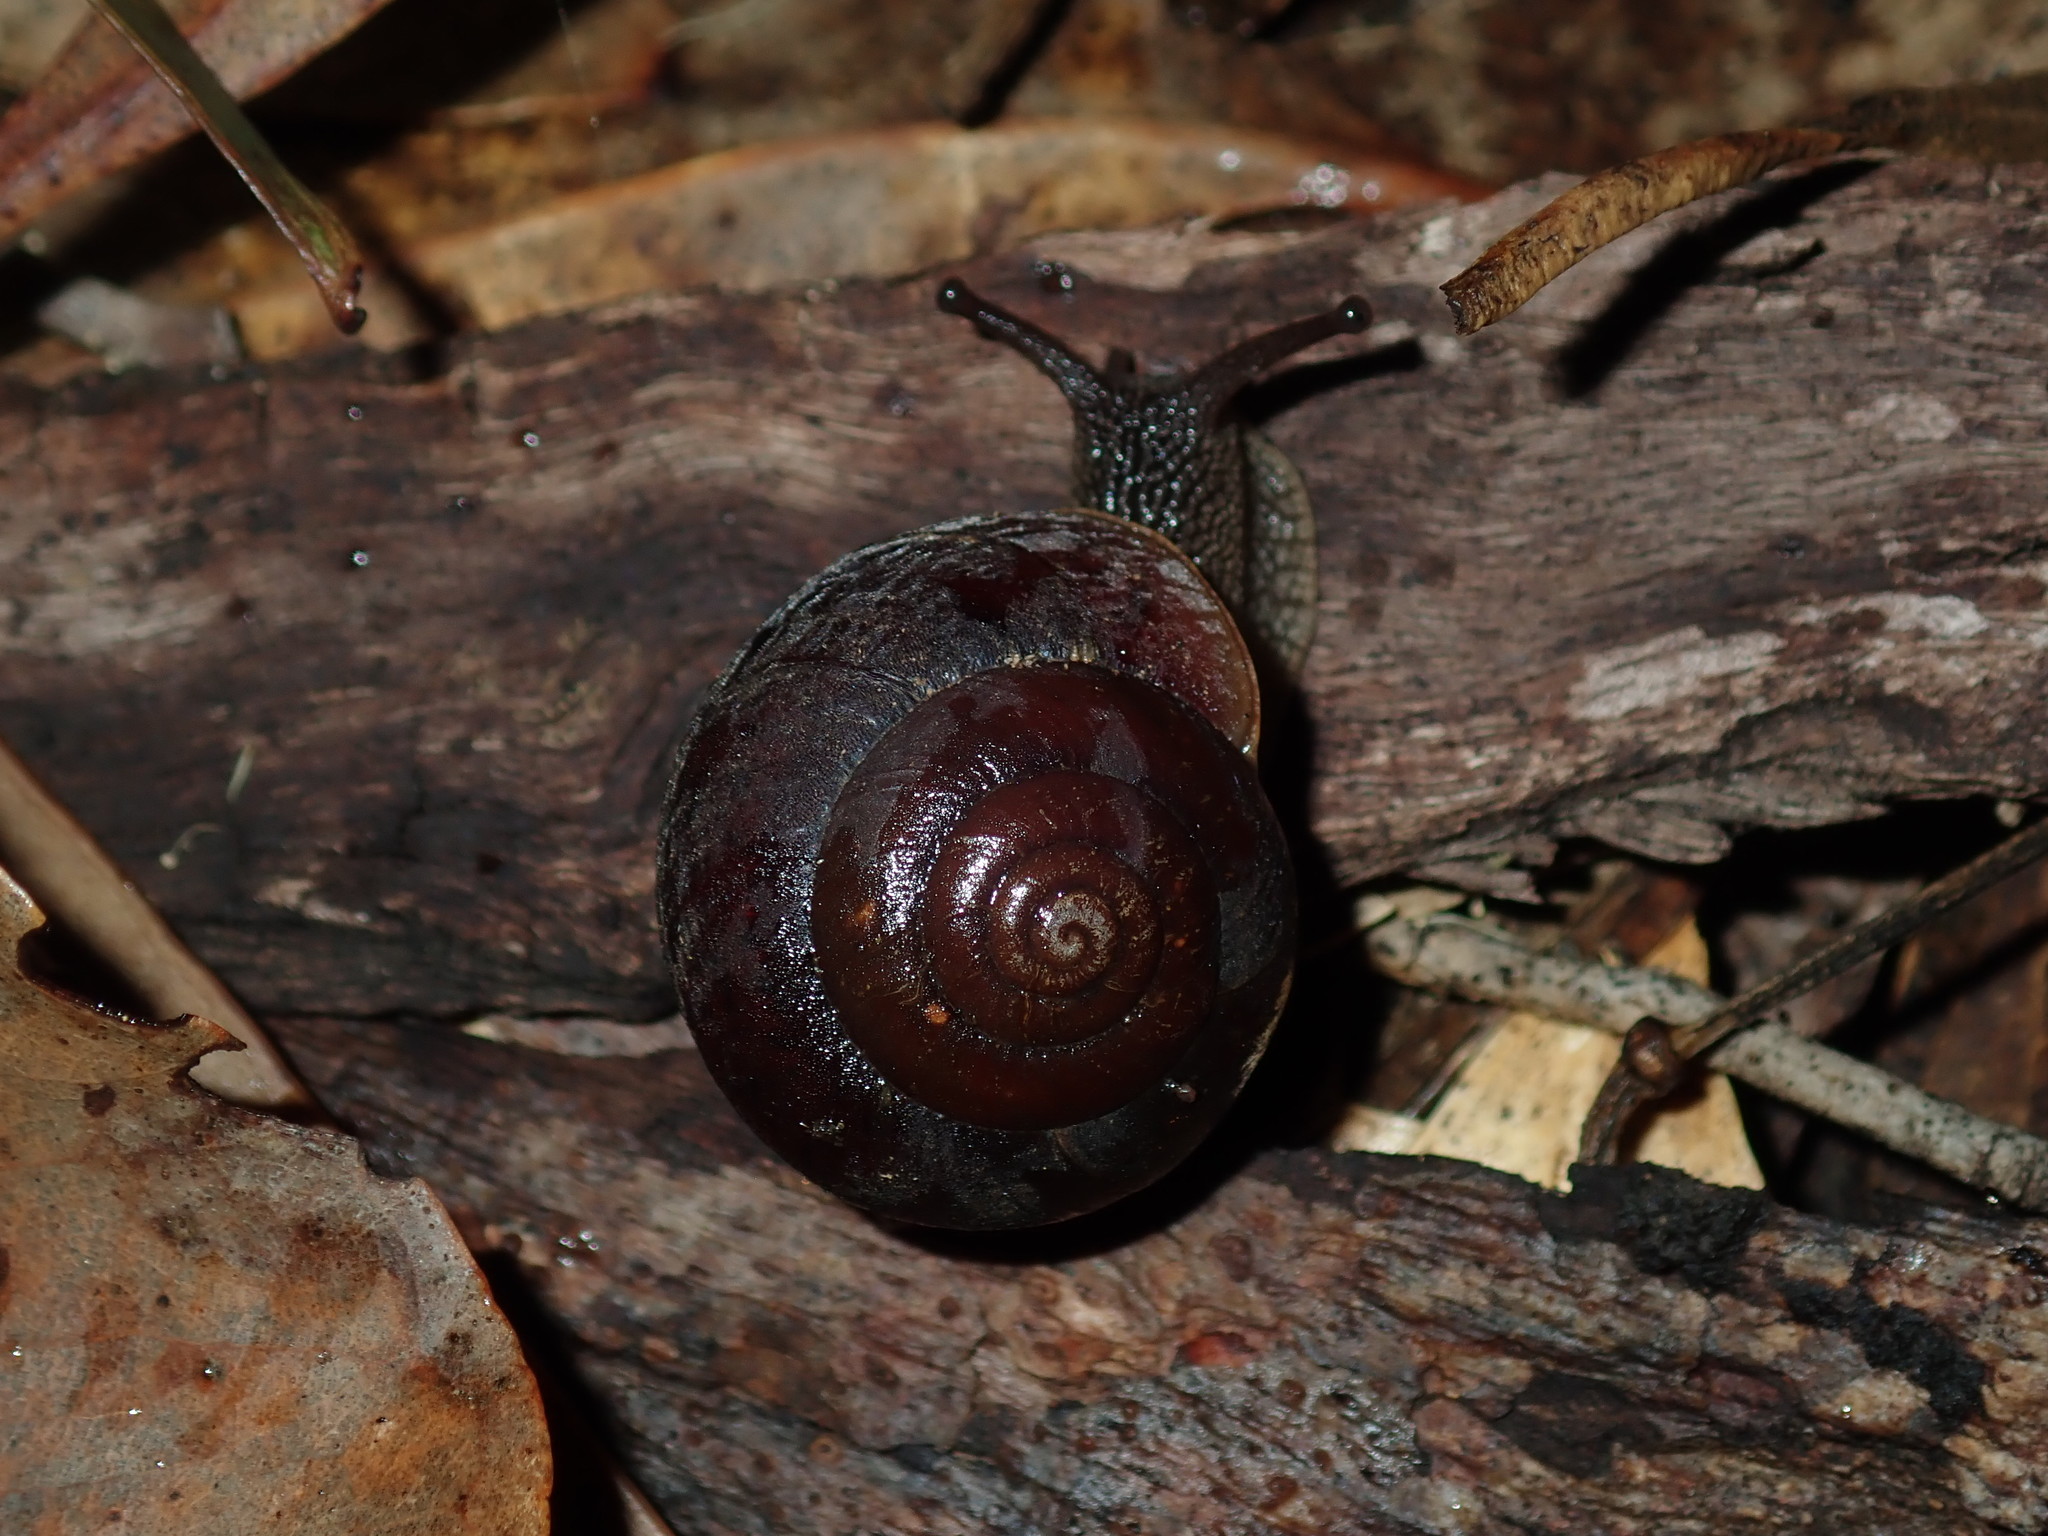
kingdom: Animalia
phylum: Mollusca
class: Gastropoda
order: Stylommatophora
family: Camaenidae
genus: Sauroconcha
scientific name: Sauroconcha sheai
